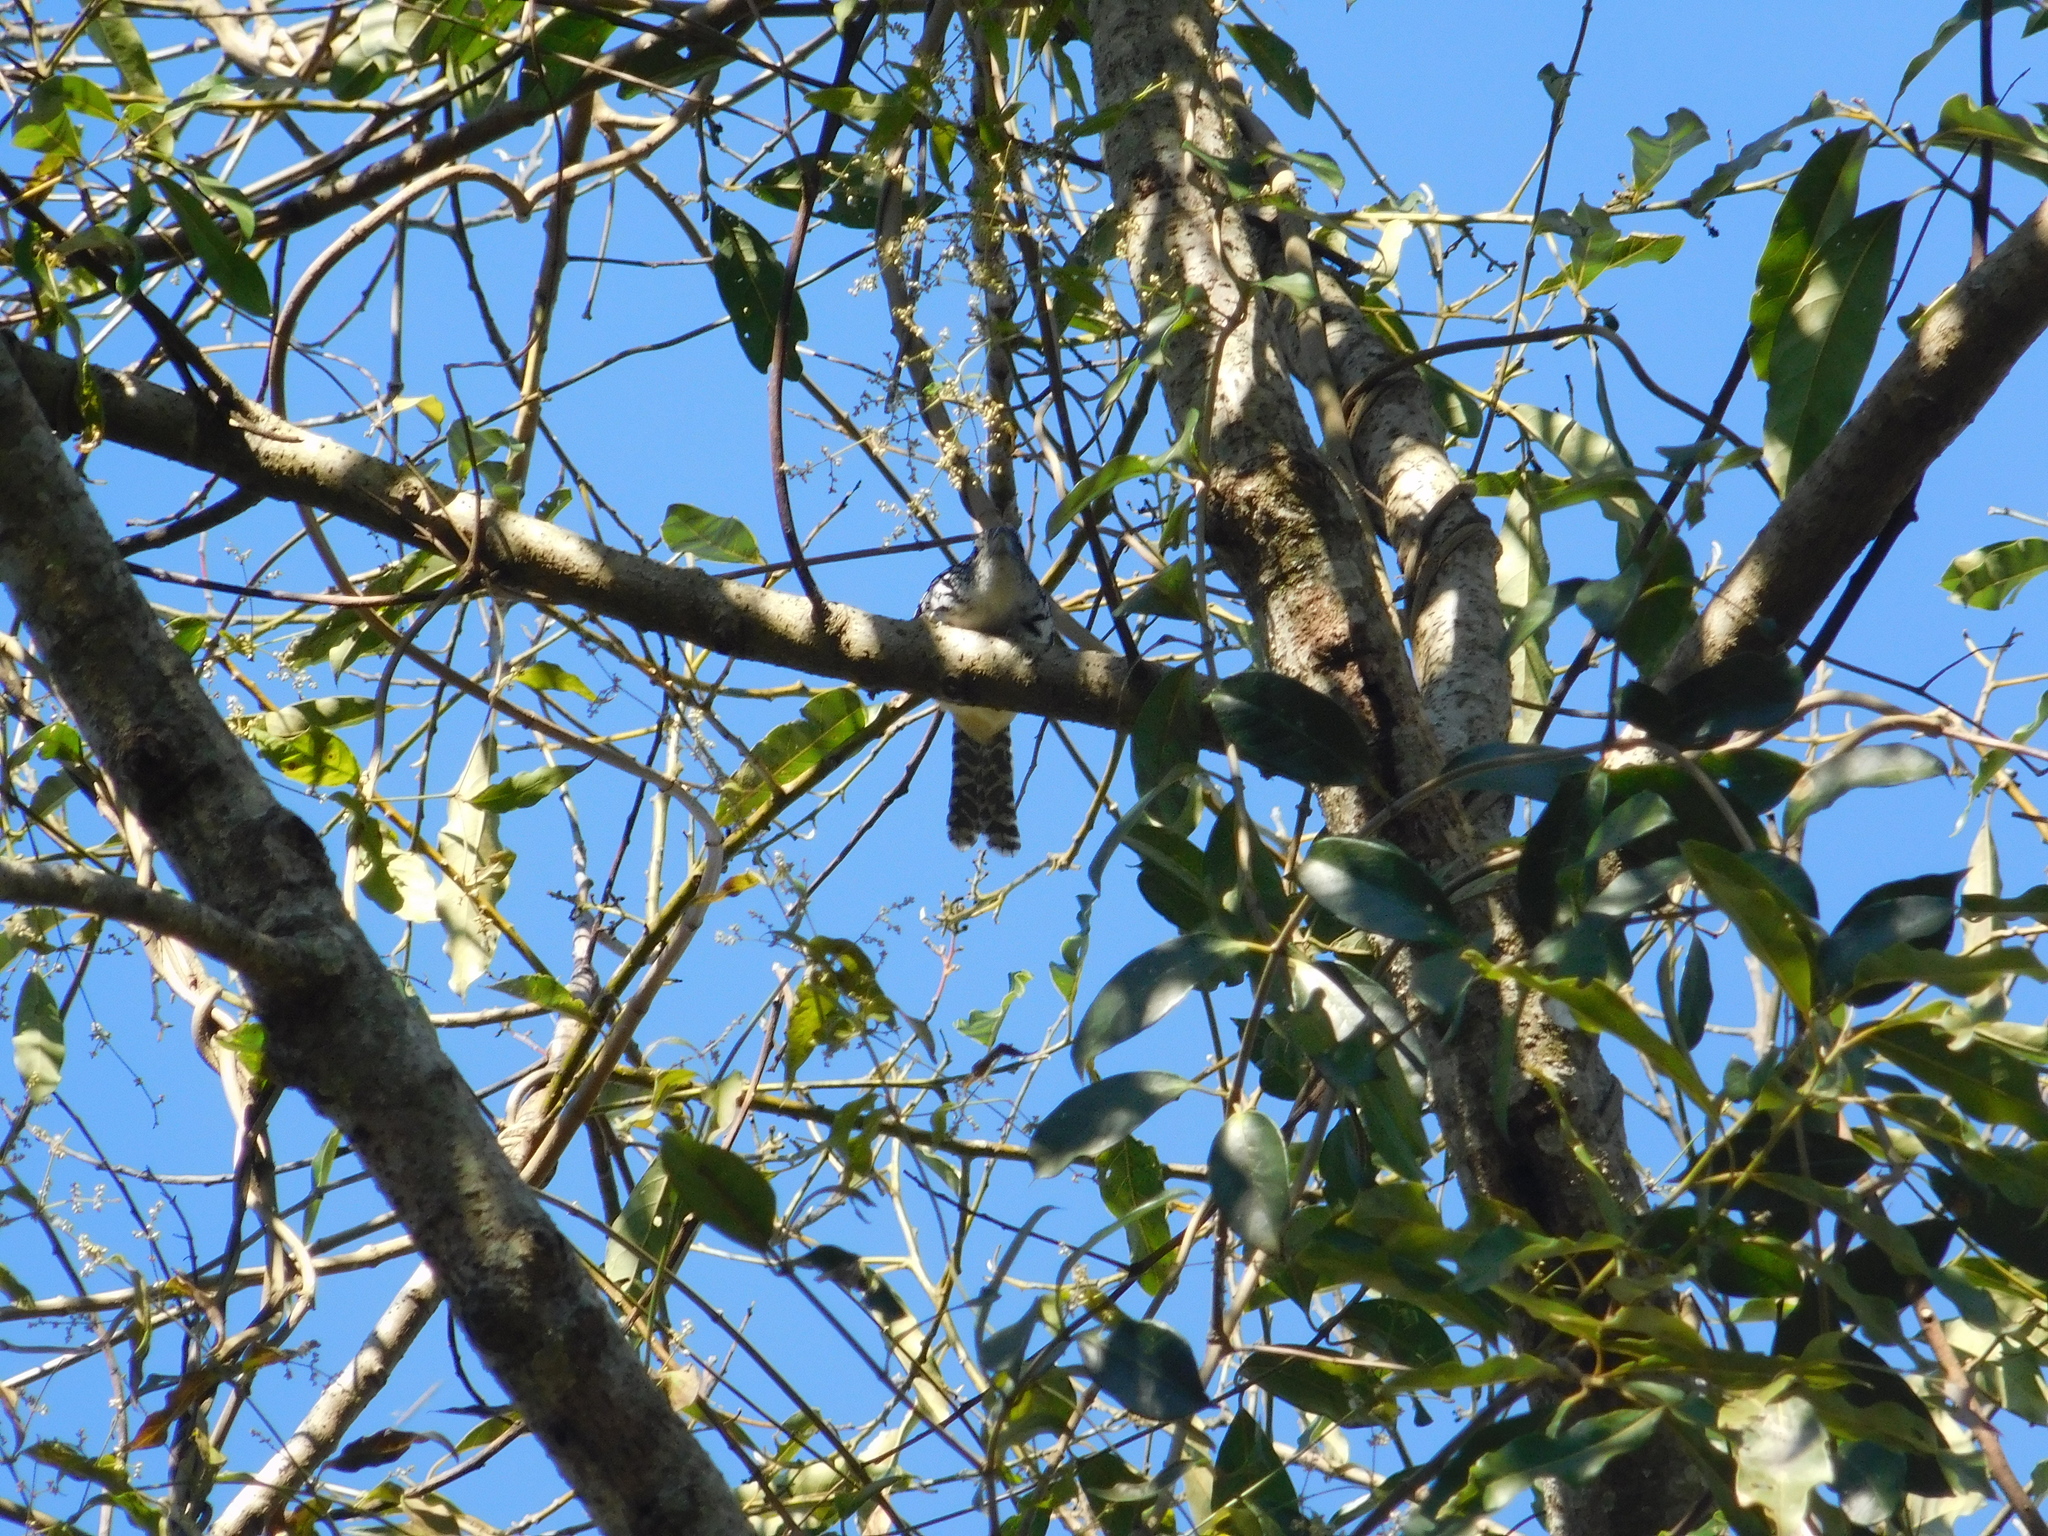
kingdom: Animalia
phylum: Chordata
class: Aves
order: Passeriformes
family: Thamnophilidae
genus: Hypoedaleus
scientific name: Hypoedaleus guttatus
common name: Spot-backed antshrike
